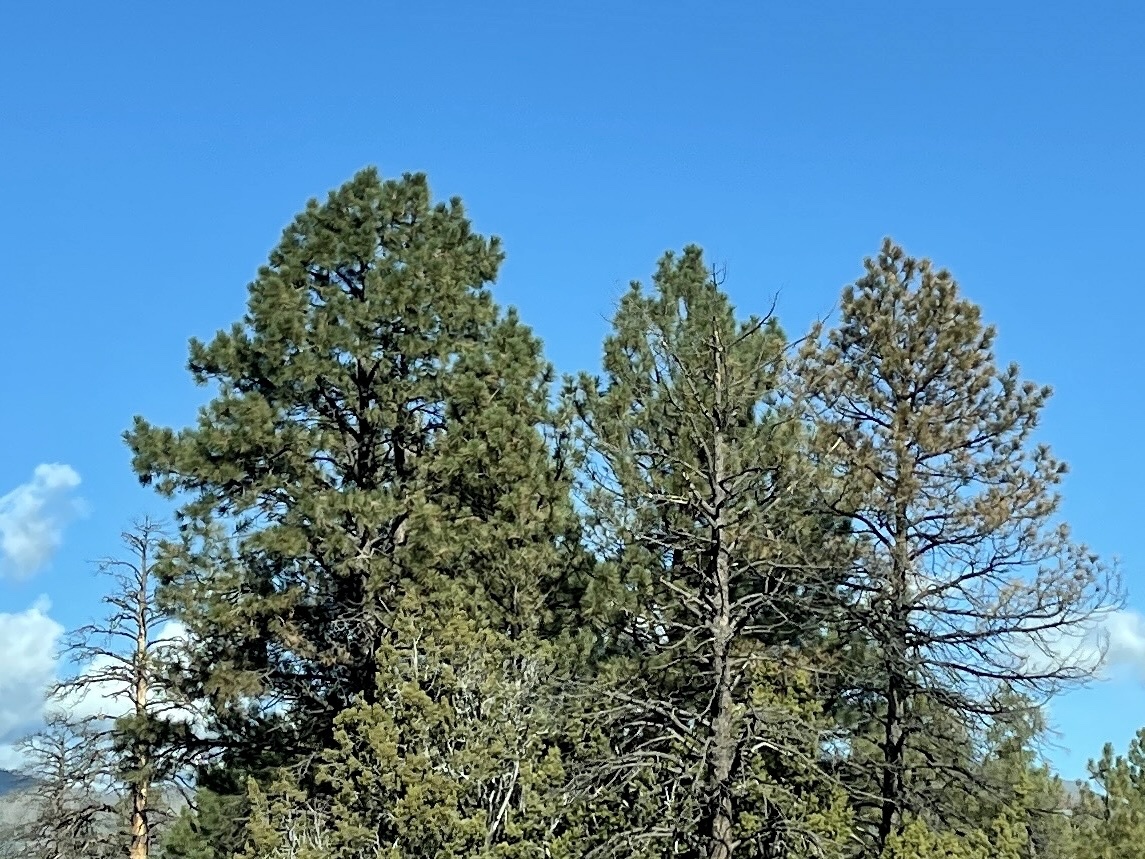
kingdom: Plantae
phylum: Tracheophyta
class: Pinopsida
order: Pinales
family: Pinaceae
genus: Pinus
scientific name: Pinus ponderosa
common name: Western yellow-pine
